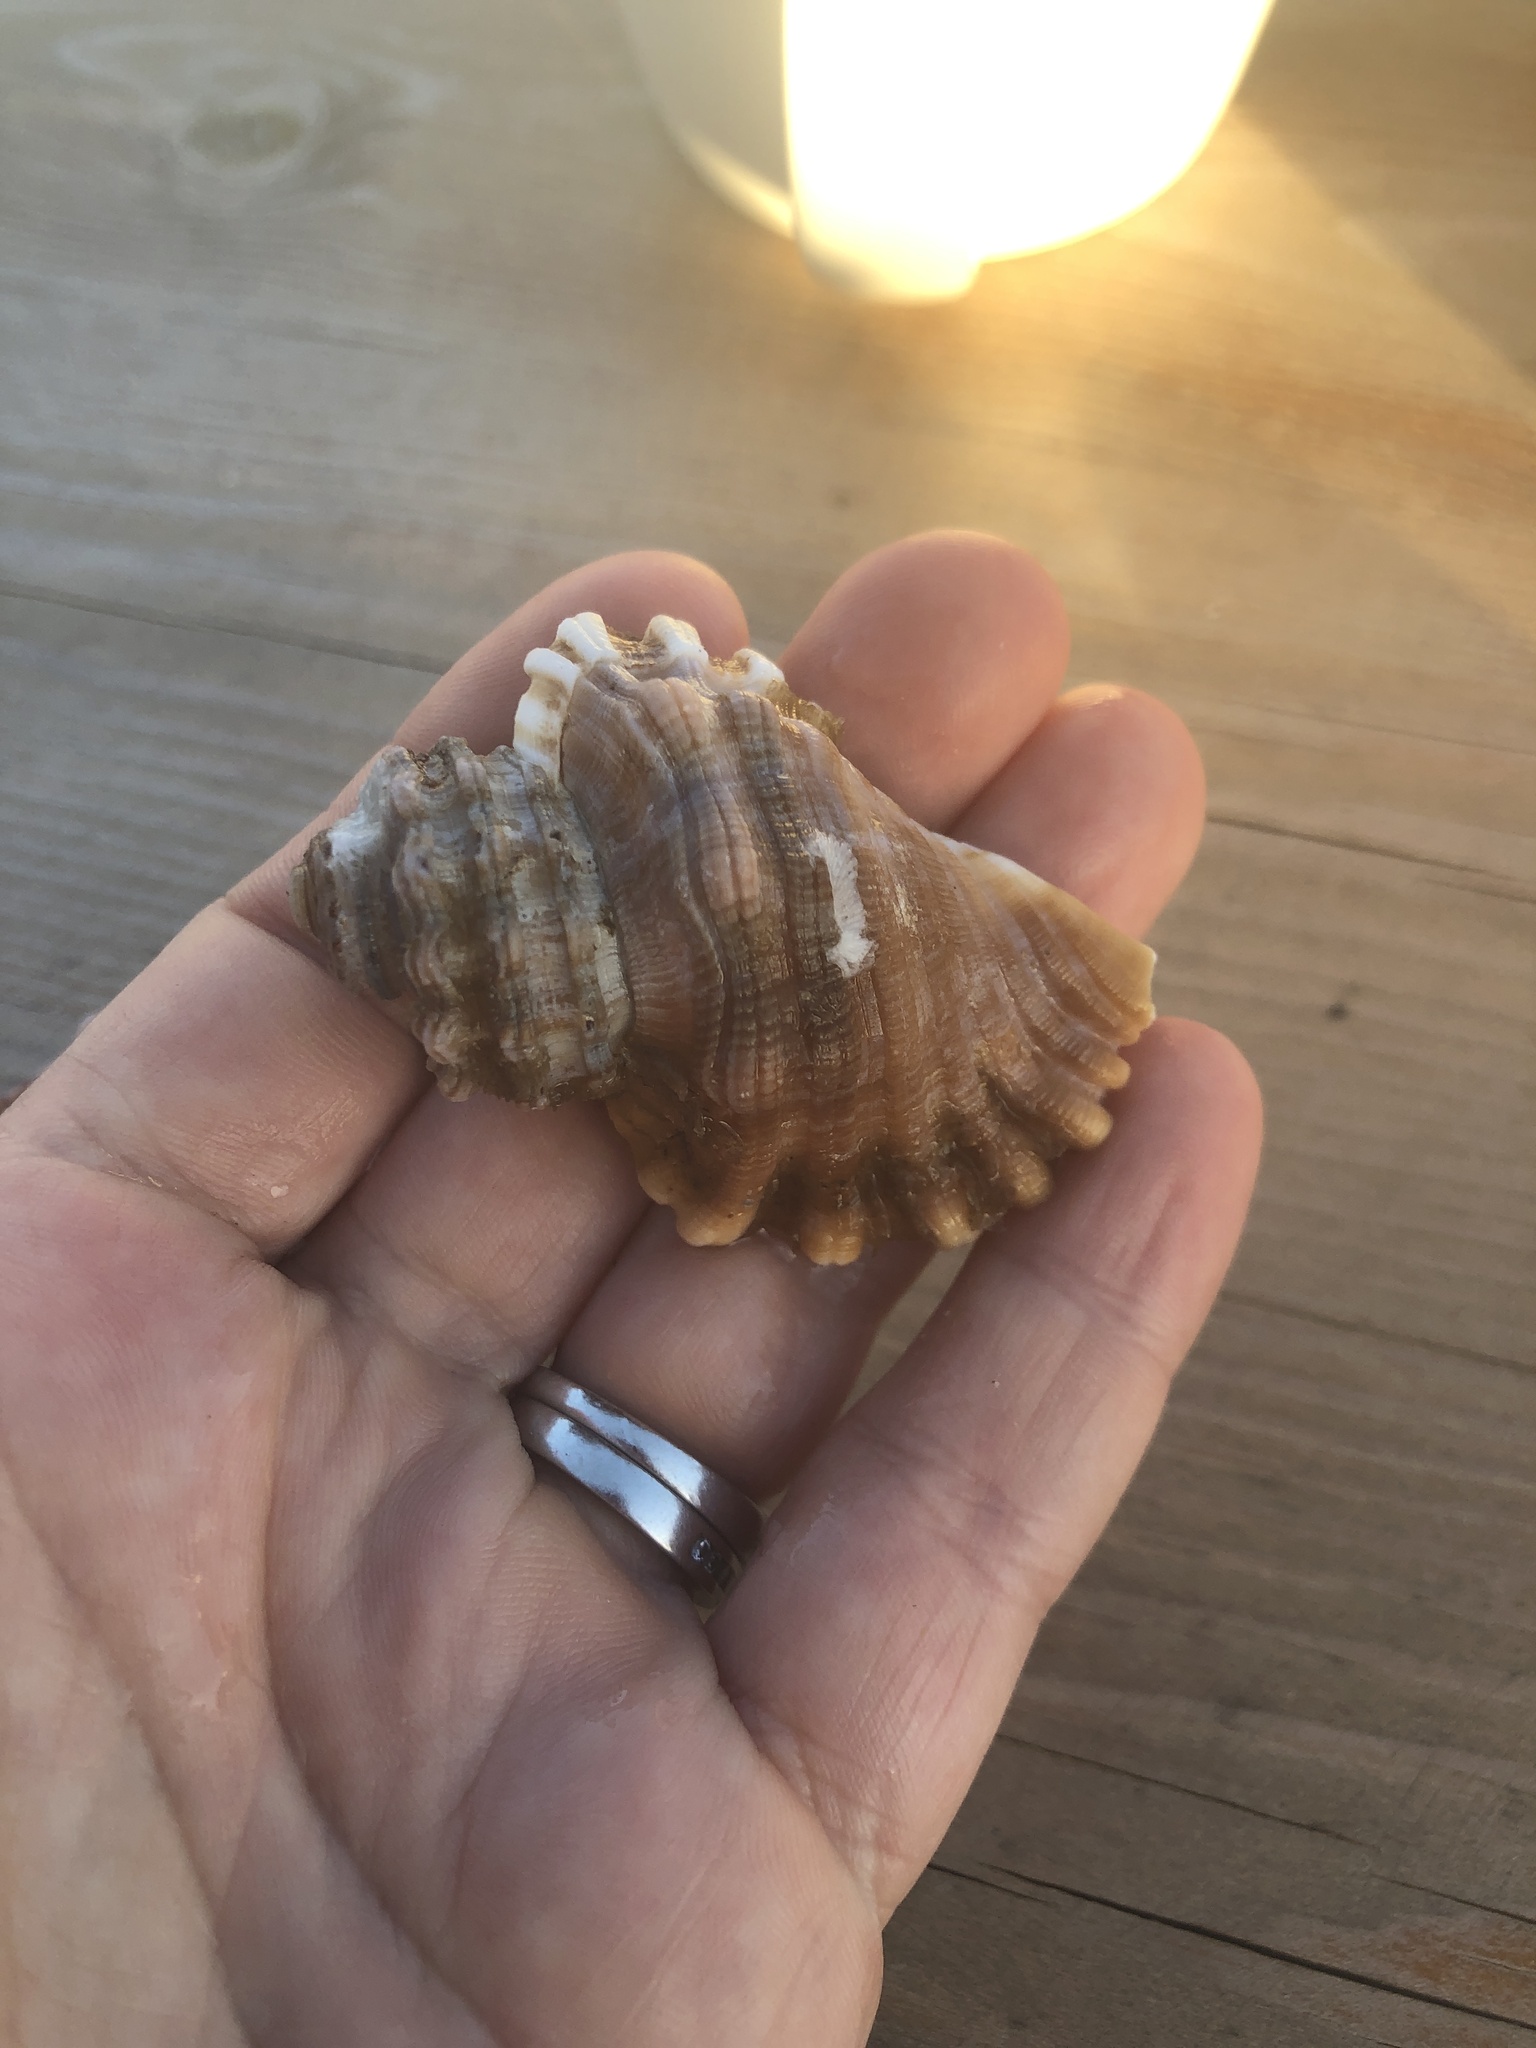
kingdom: Animalia
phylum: Mollusca
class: Gastropoda
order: Littorinimorpha
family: Cymatiidae
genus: Cabestana
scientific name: Cabestana cutacea
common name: Mediterranean bark triton
